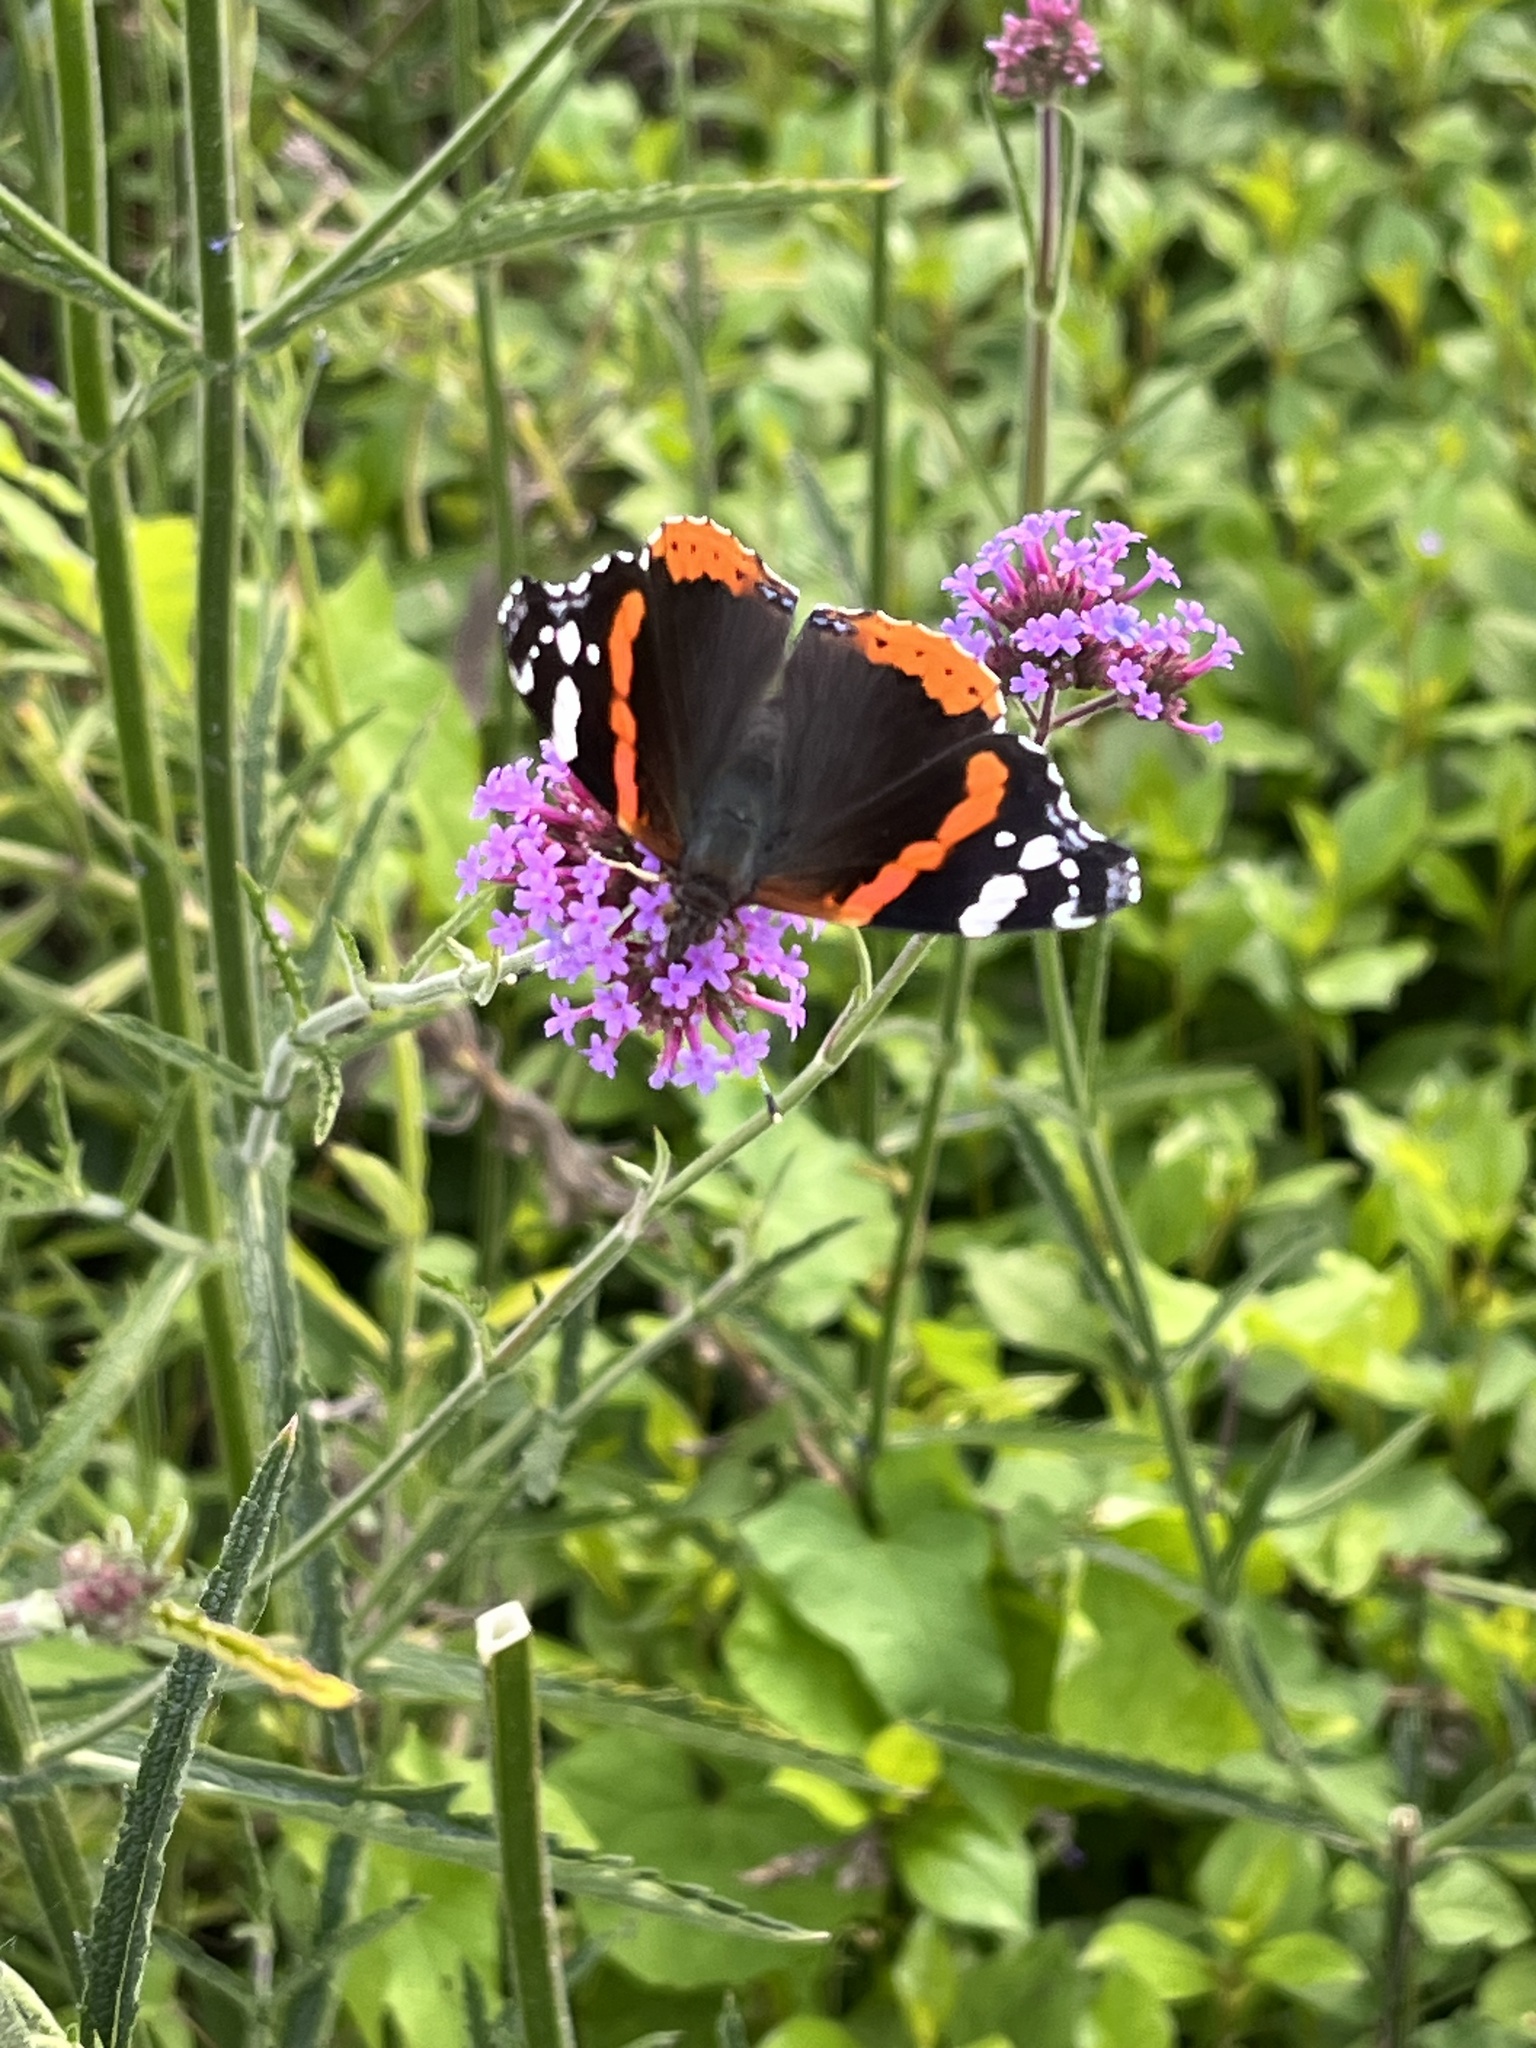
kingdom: Animalia
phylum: Arthropoda
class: Insecta
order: Lepidoptera
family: Nymphalidae
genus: Vanessa
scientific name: Vanessa atalanta
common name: Red admiral
